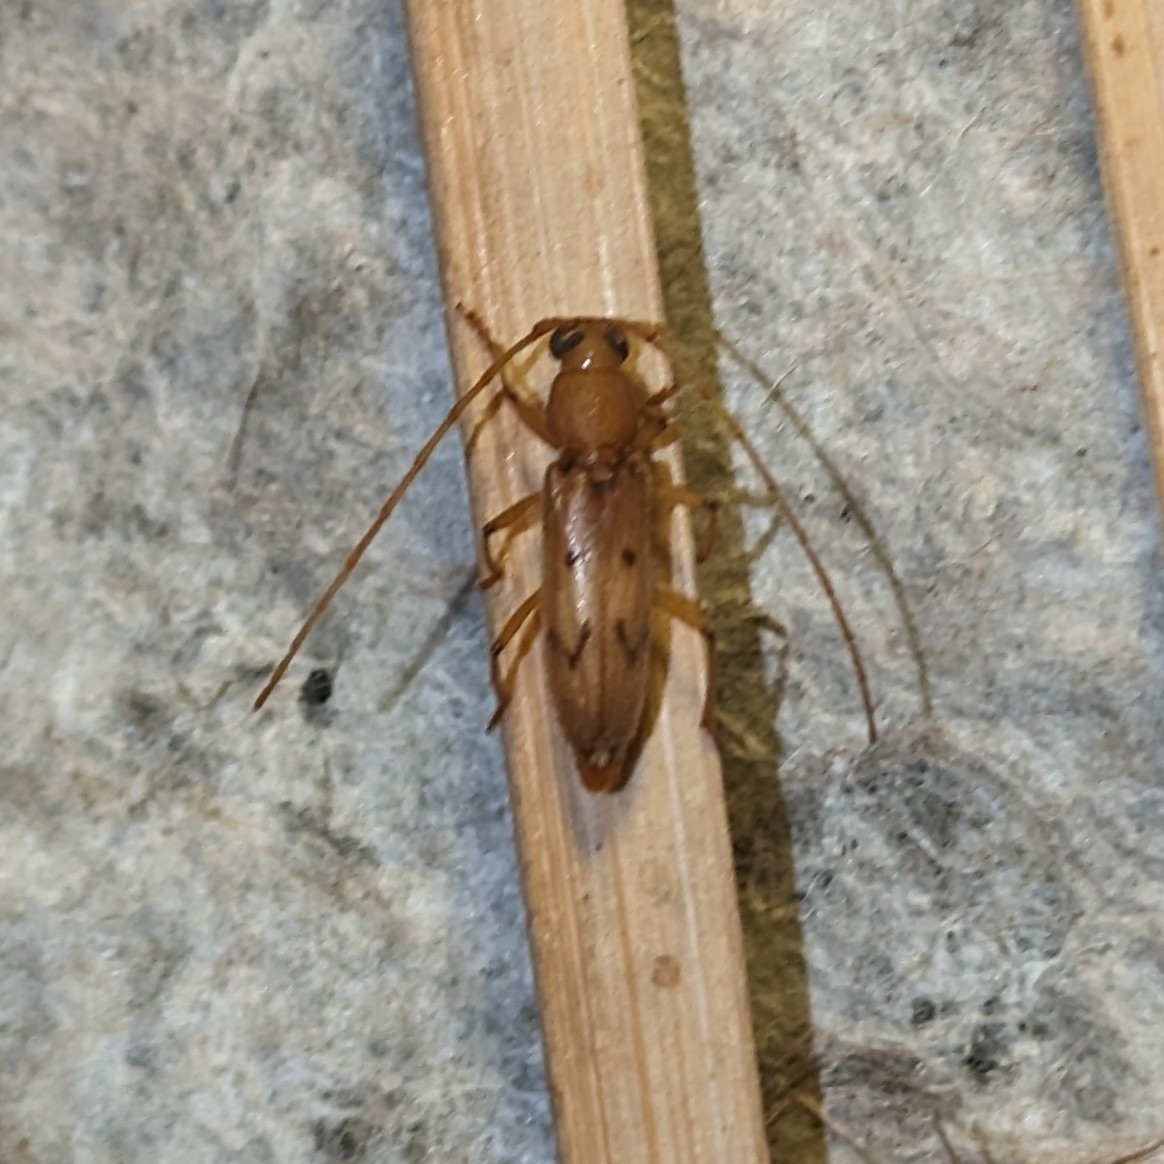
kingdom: Animalia
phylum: Arthropoda
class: Insecta
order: Coleoptera
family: Cerambycidae
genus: Achryson
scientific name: Achryson surinamum
